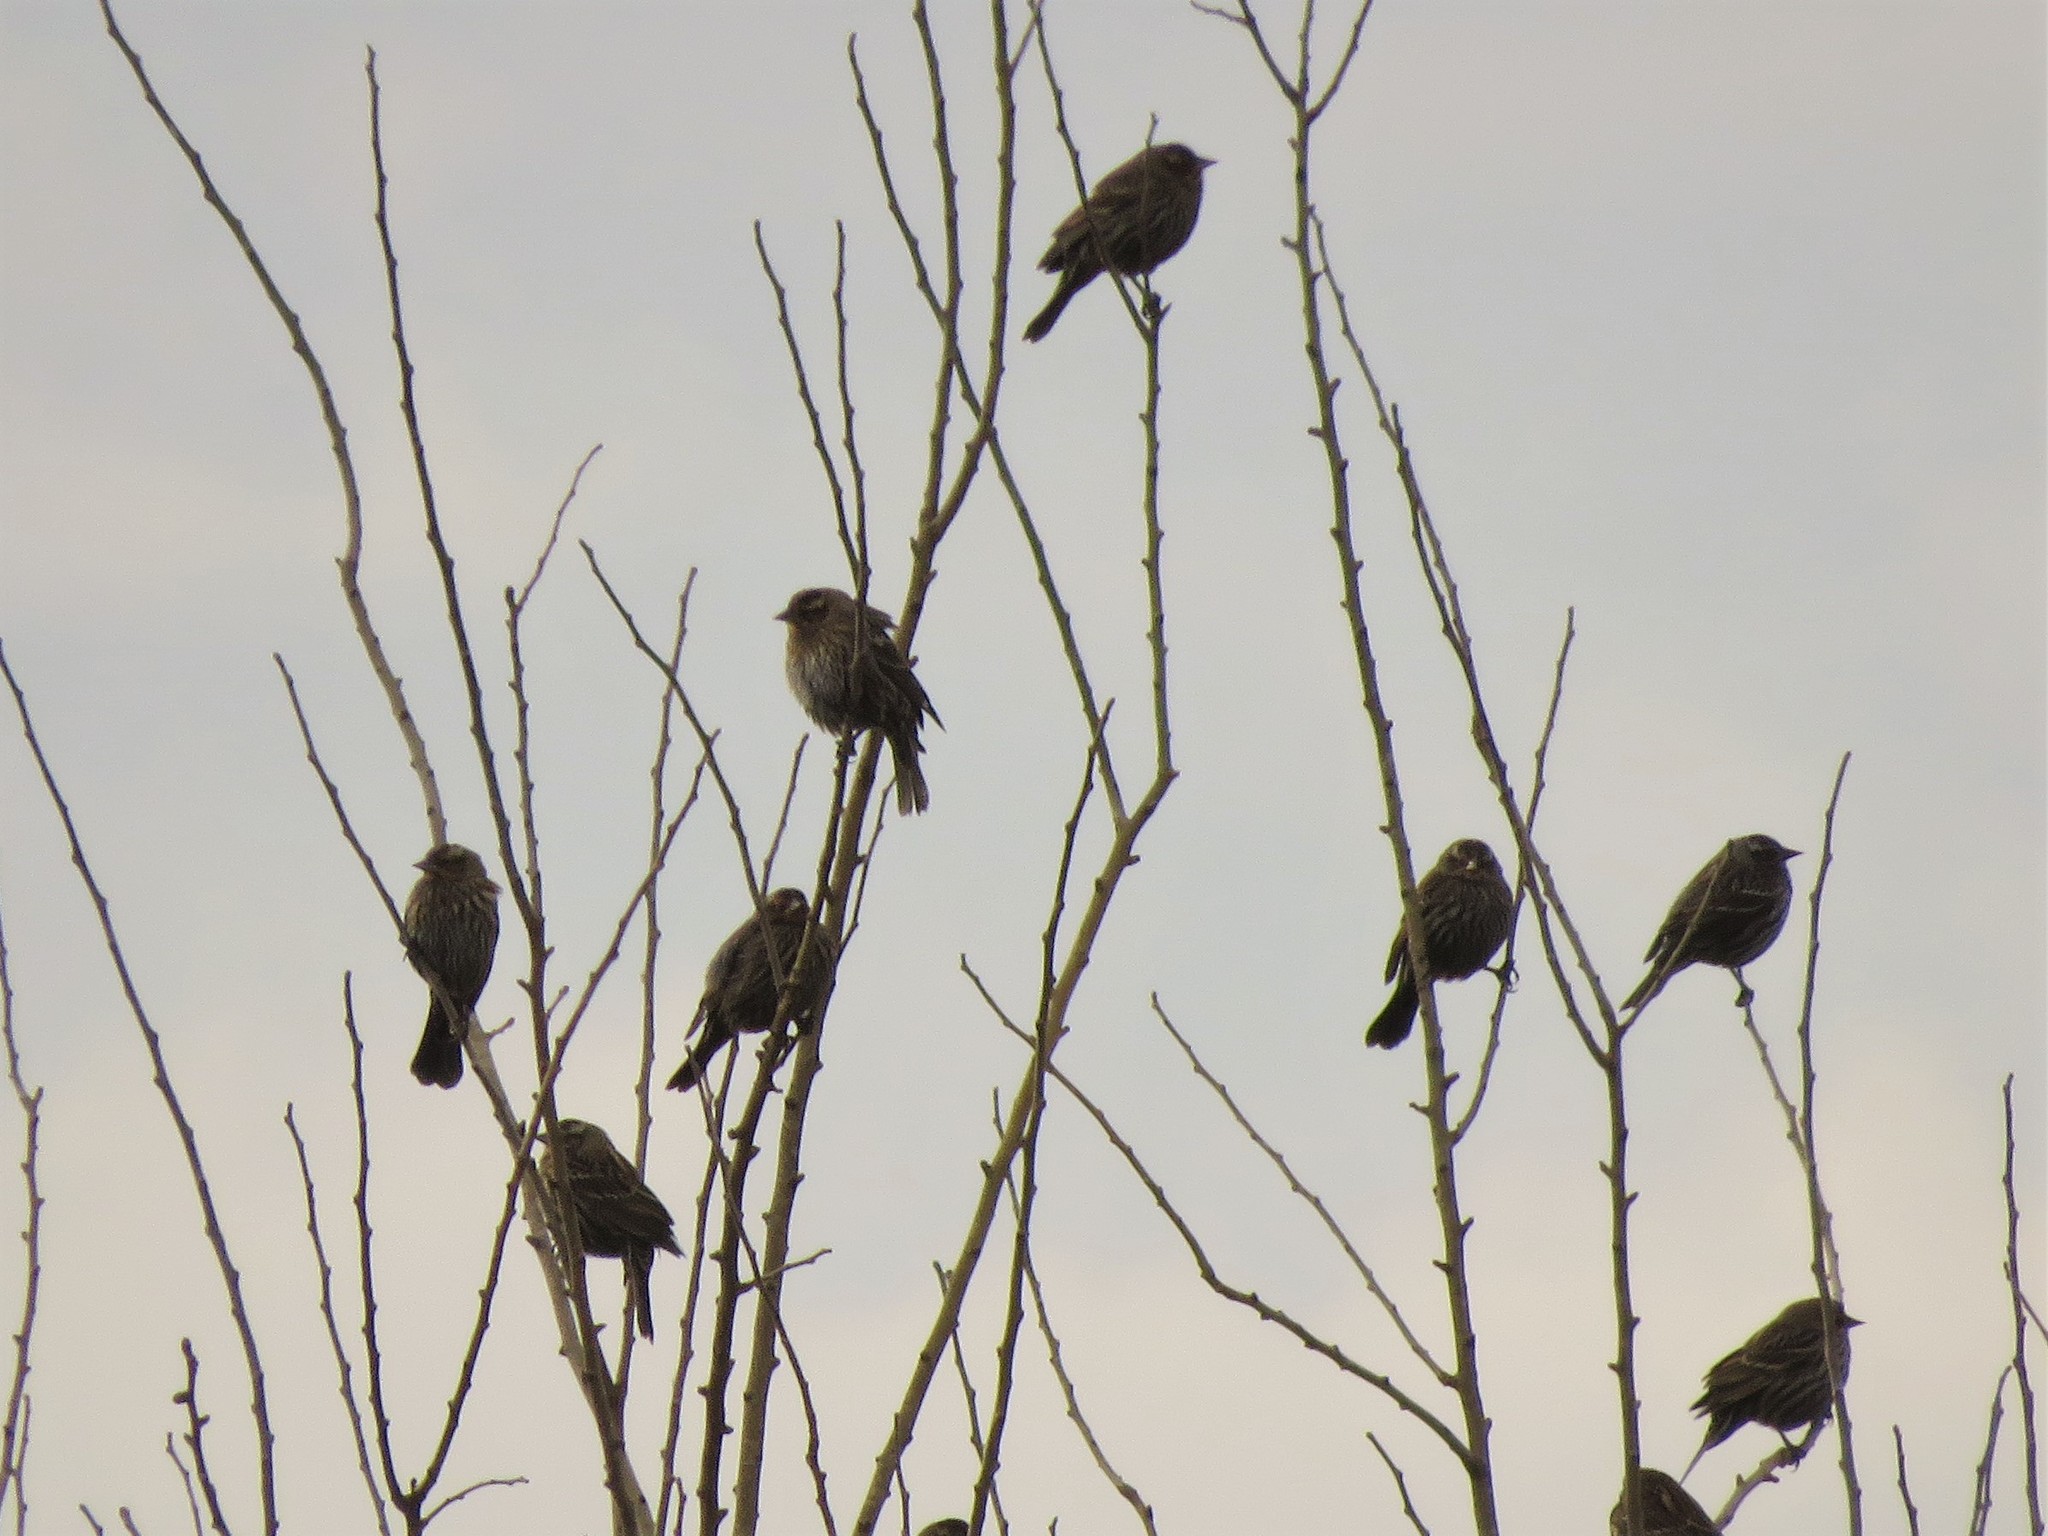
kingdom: Animalia
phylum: Chordata
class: Aves
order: Passeriformes
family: Icteridae
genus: Agelaius
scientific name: Agelaius phoeniceus
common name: Red-winged blackbird
